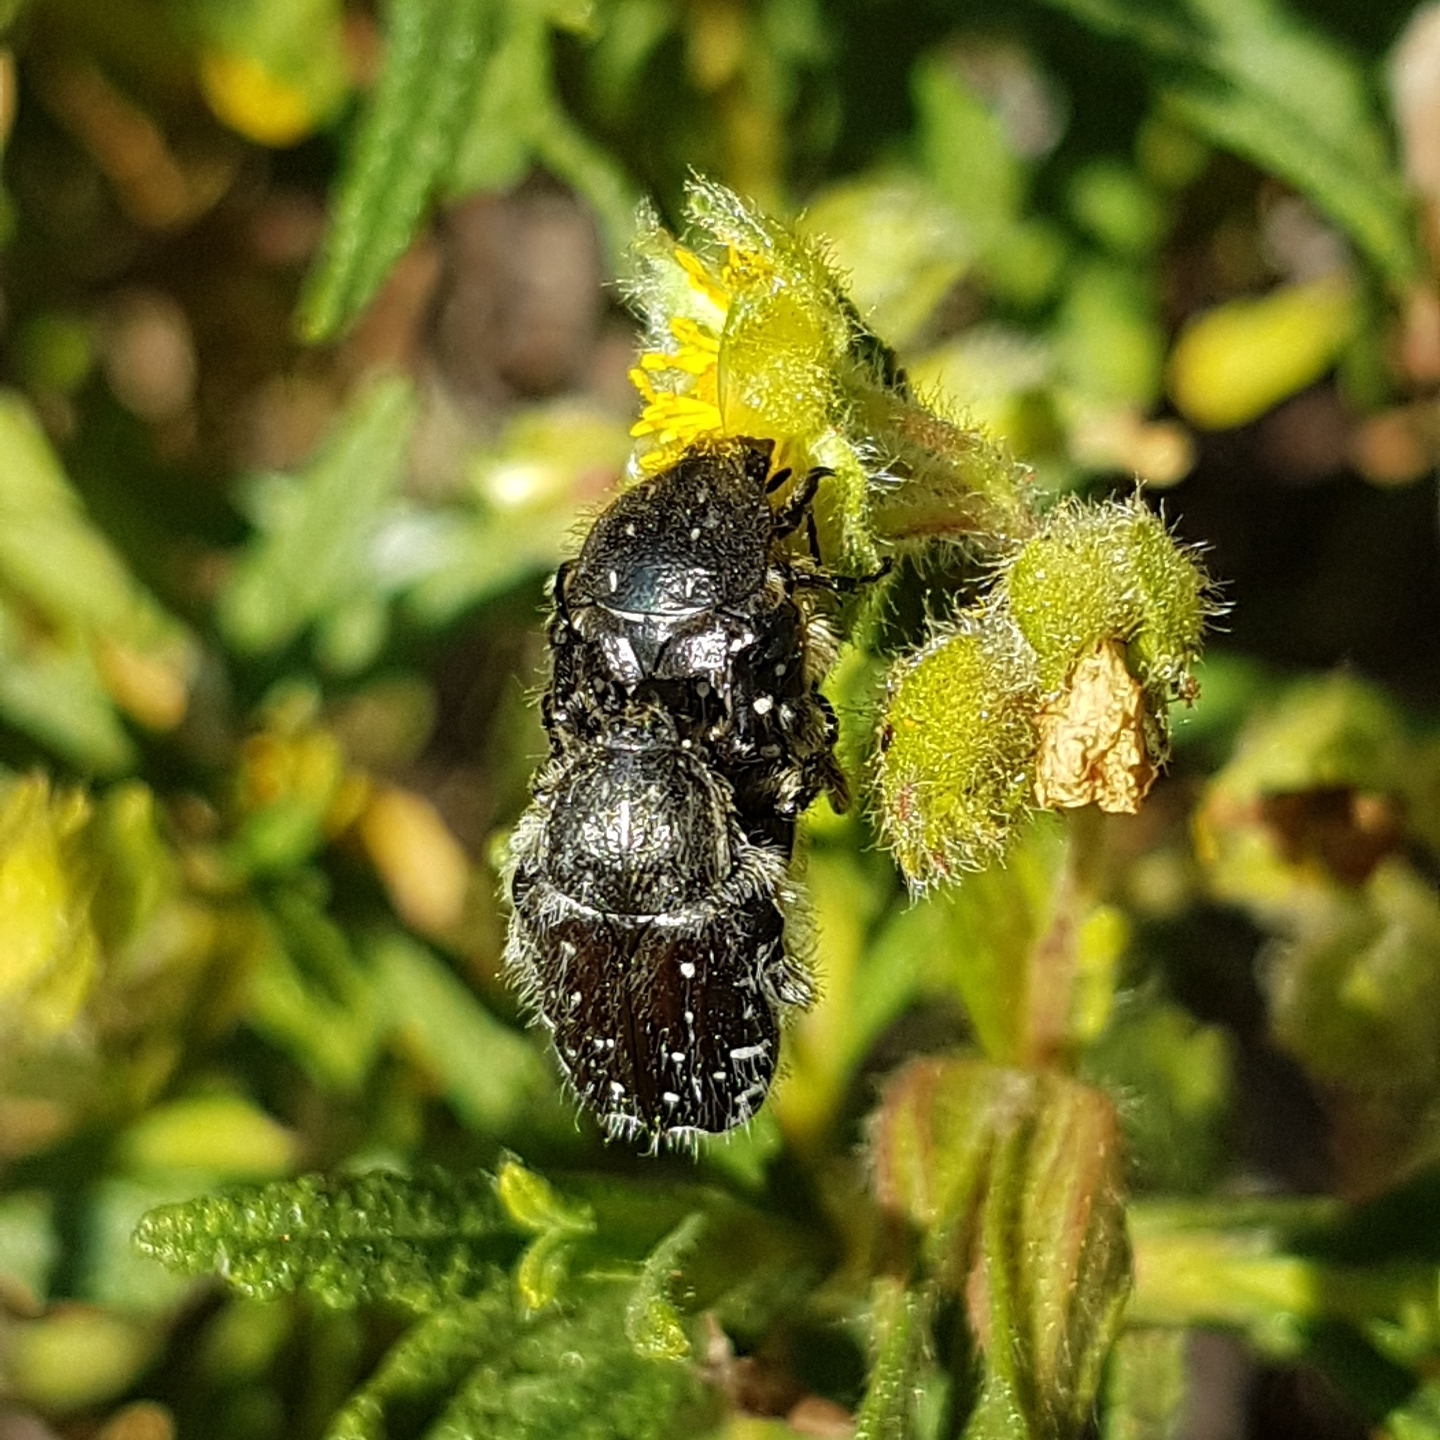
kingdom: Animalia
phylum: Arthropoda
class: Insecta
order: Coleoptera
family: Scarabaeidae
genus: Oxythyrea
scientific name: Oxythyrea funesta
